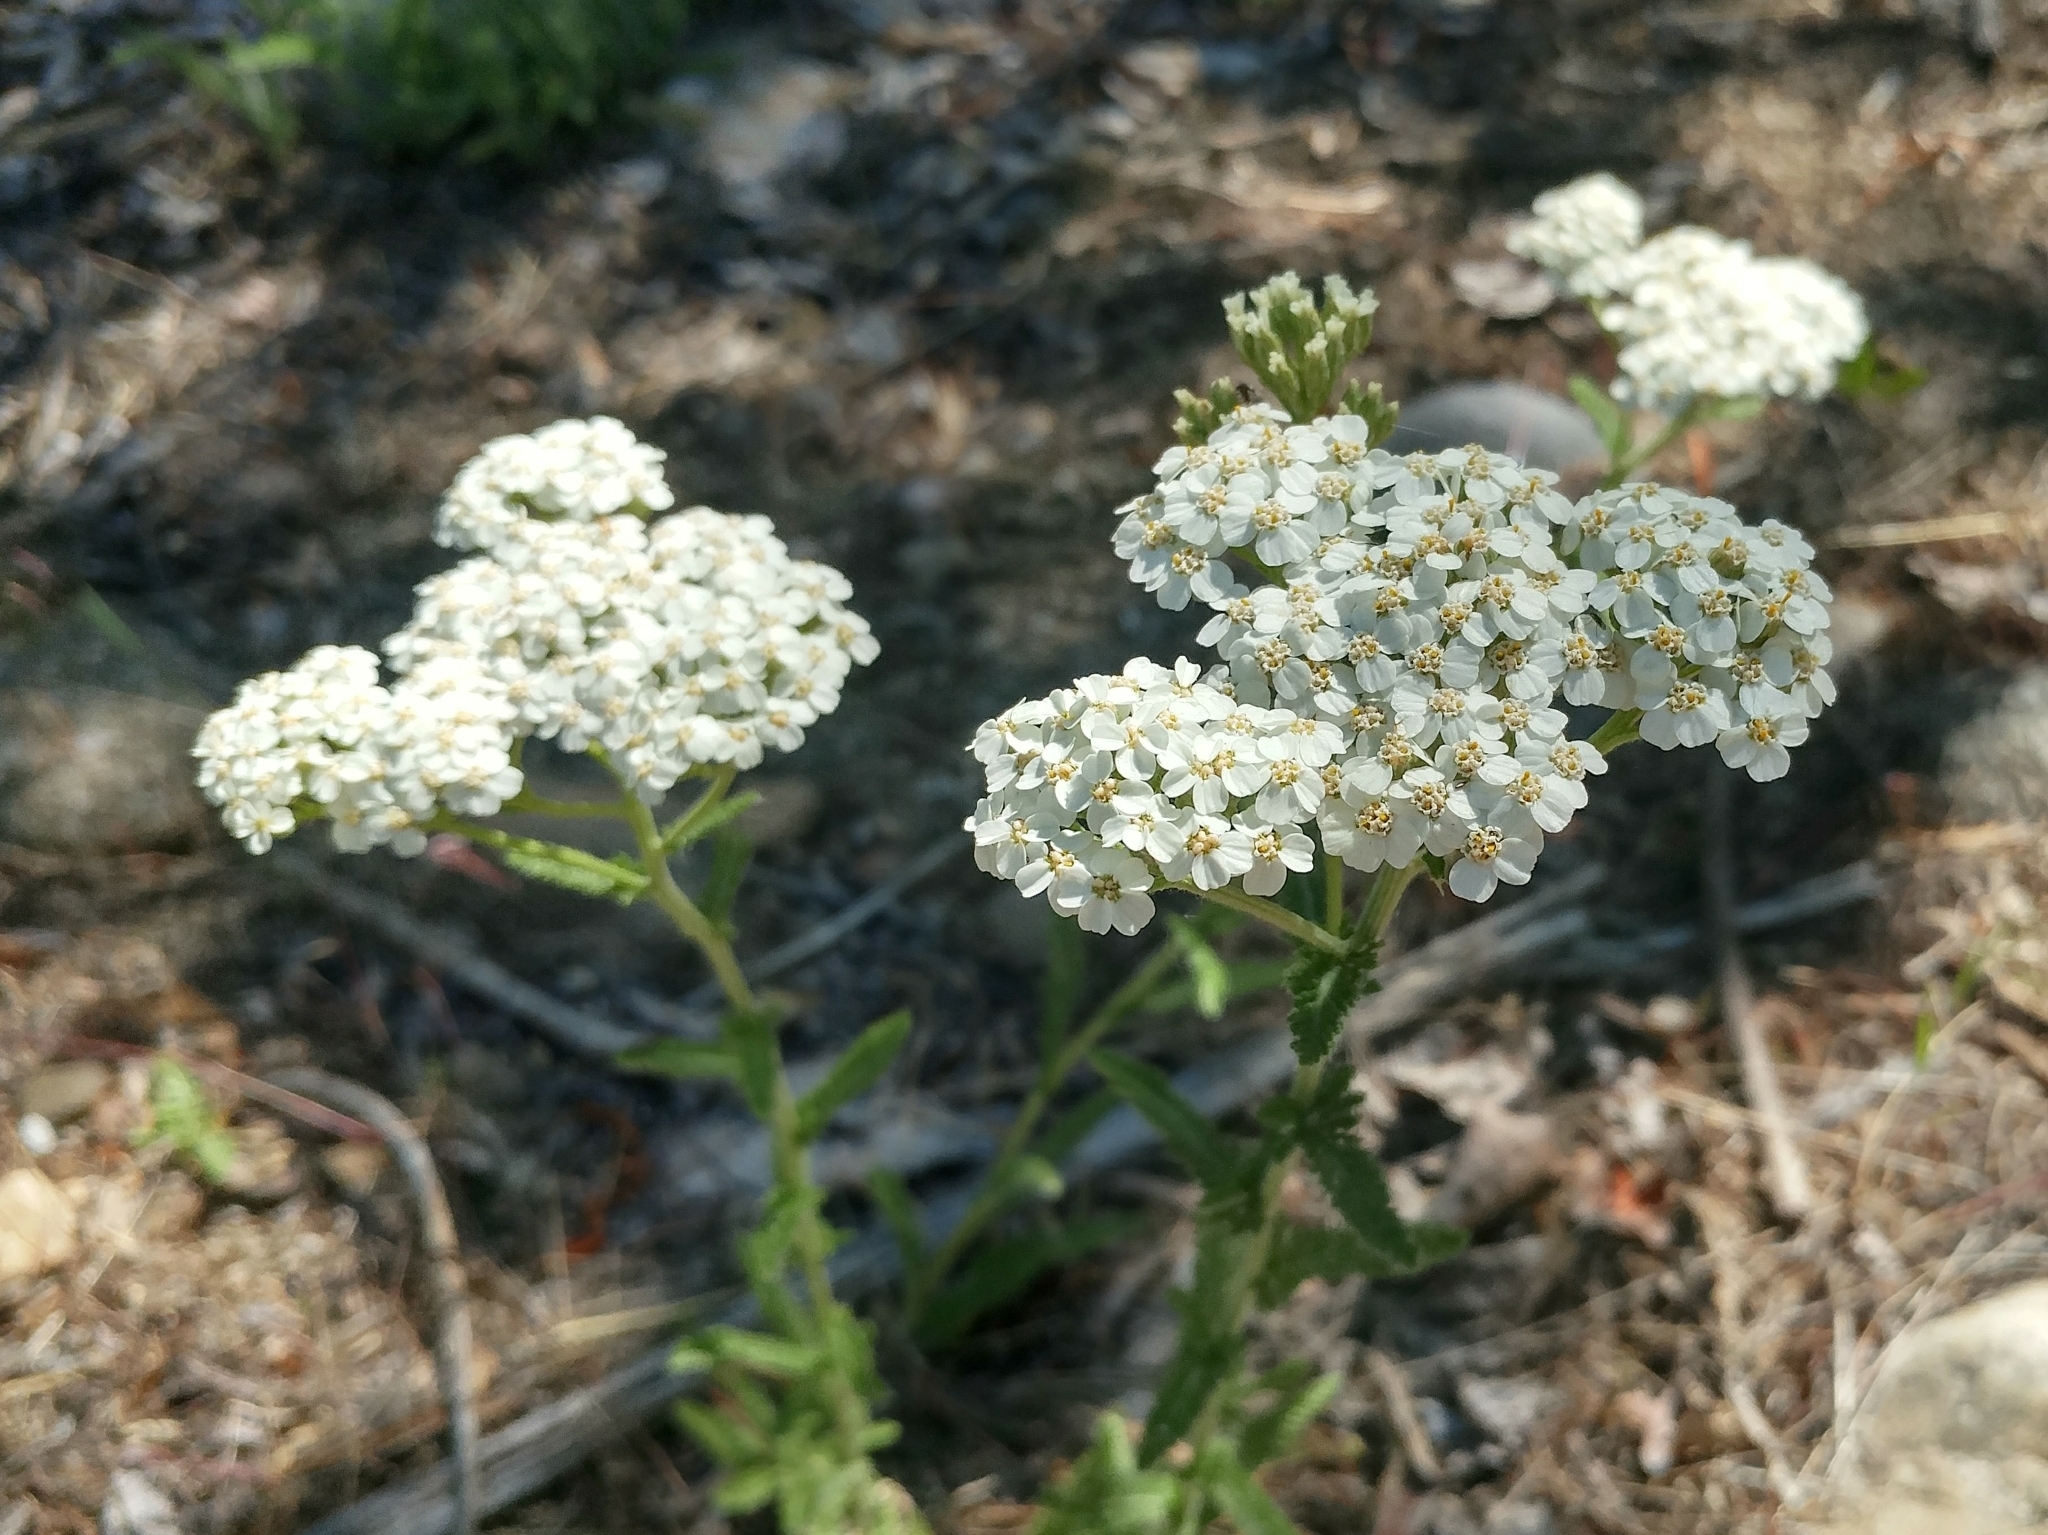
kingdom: Plantae
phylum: Tracheophyta
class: Magnoliopsida
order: Asterales
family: Asteraceae
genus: Achillea
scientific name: Achillea millefolium
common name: Yarrow
